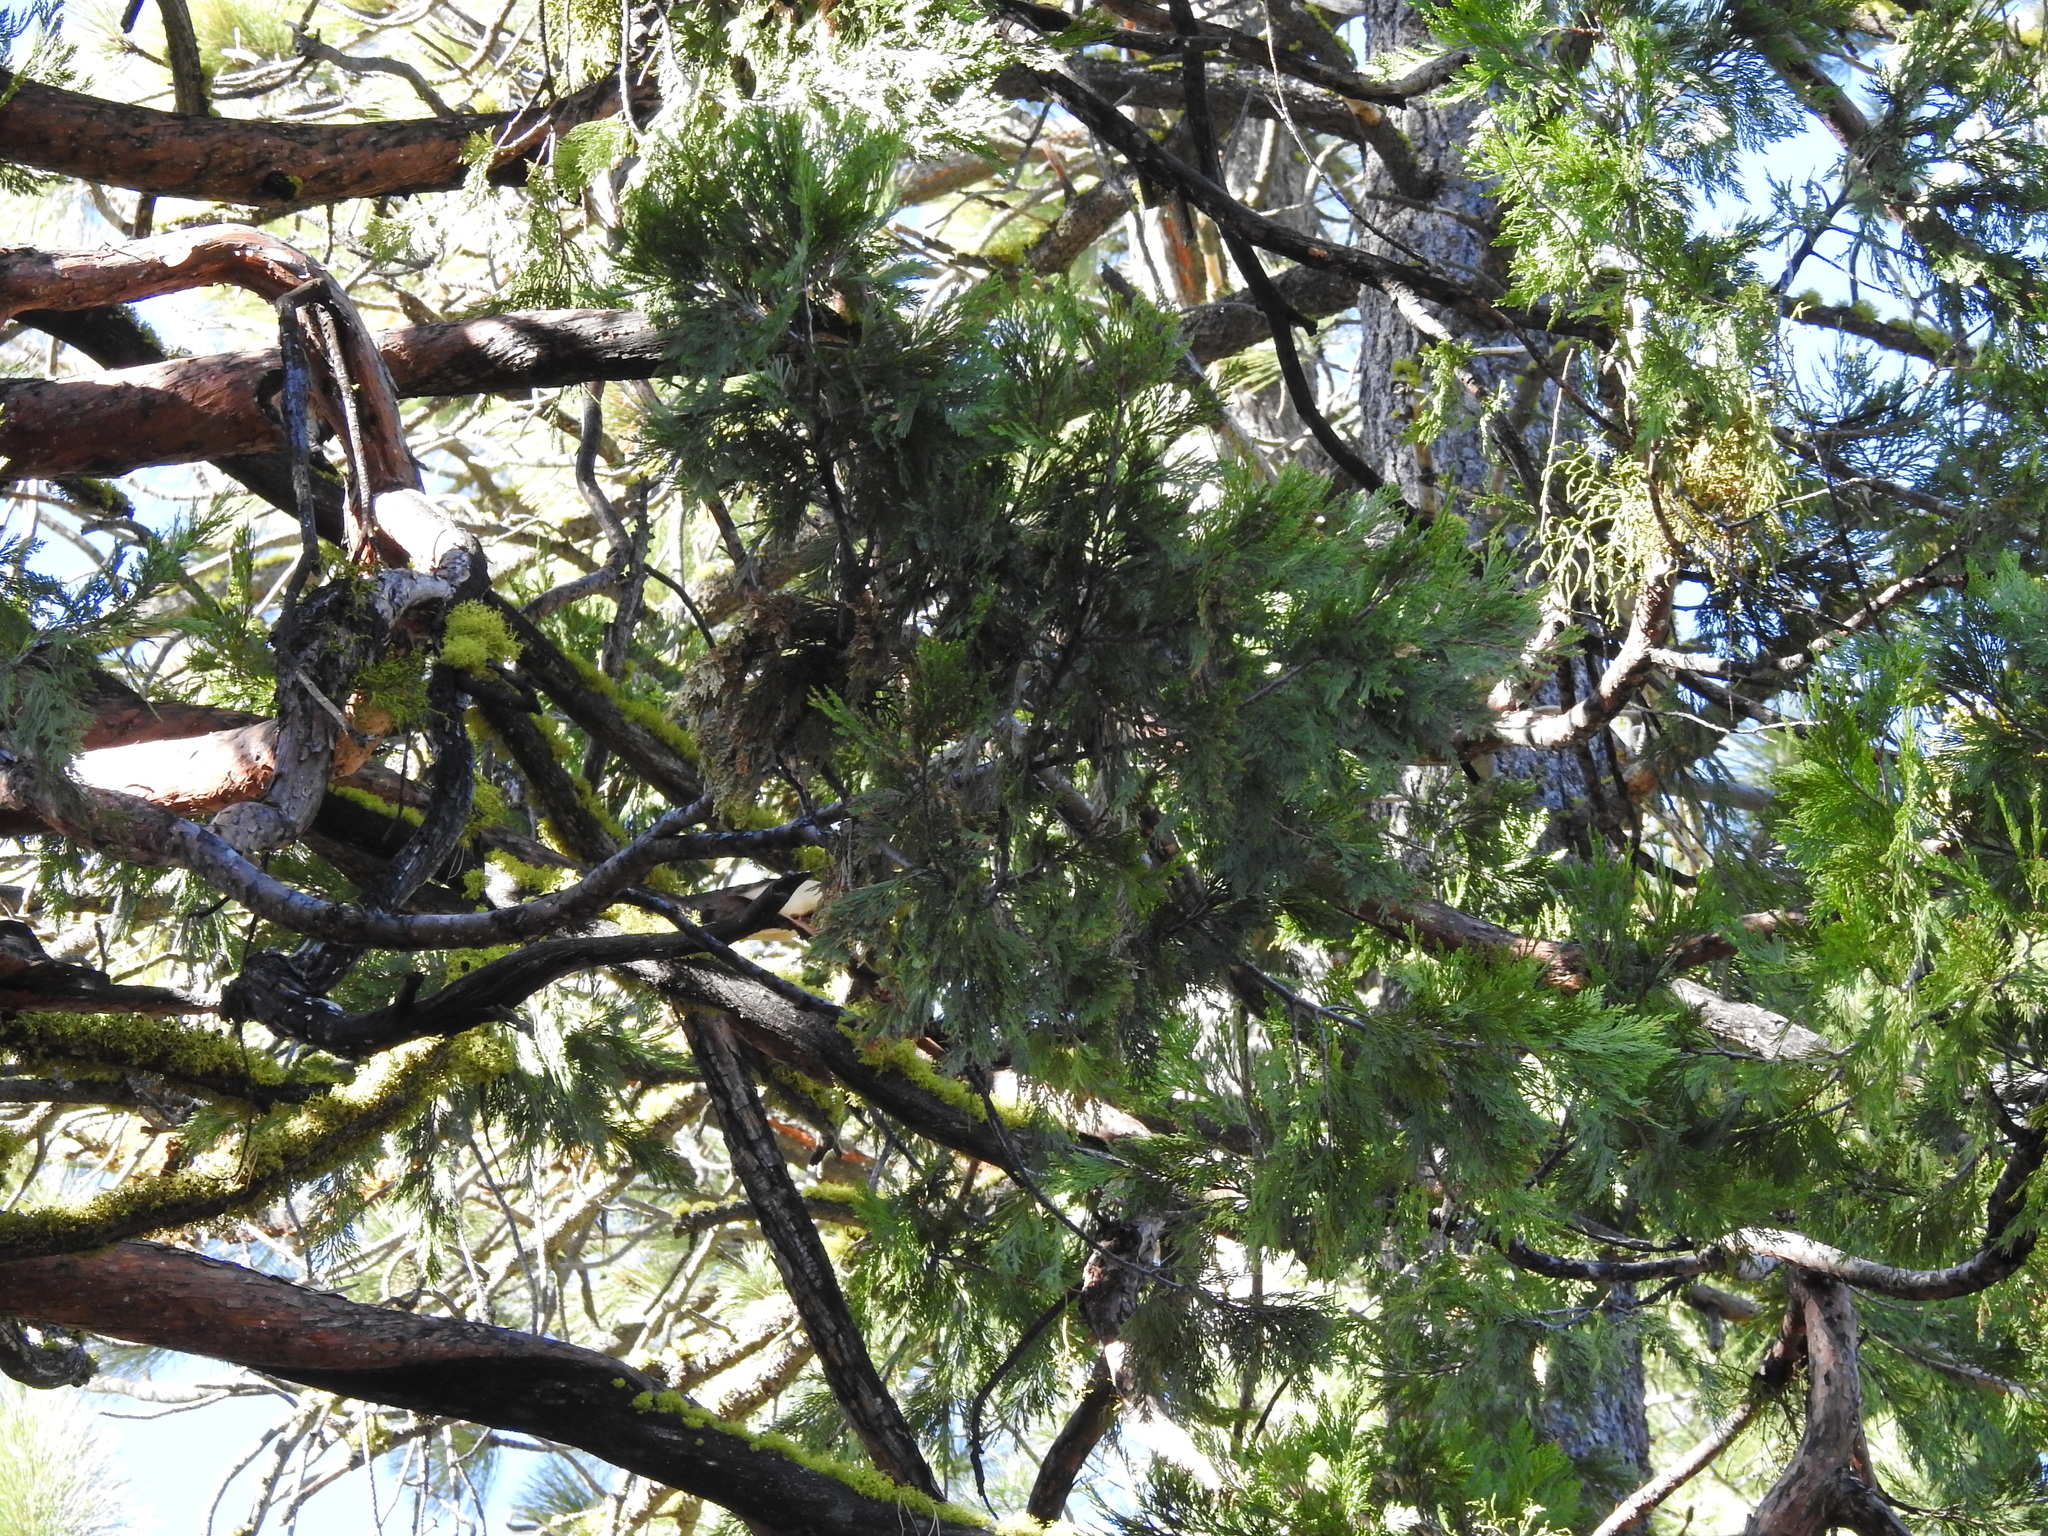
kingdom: Plantae
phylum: Tracheophyta
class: Pinopsida
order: Pinales
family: Cupressaceae
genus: Calocedrus
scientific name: Calocedrus decurrens
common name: Californian incense-cedar
